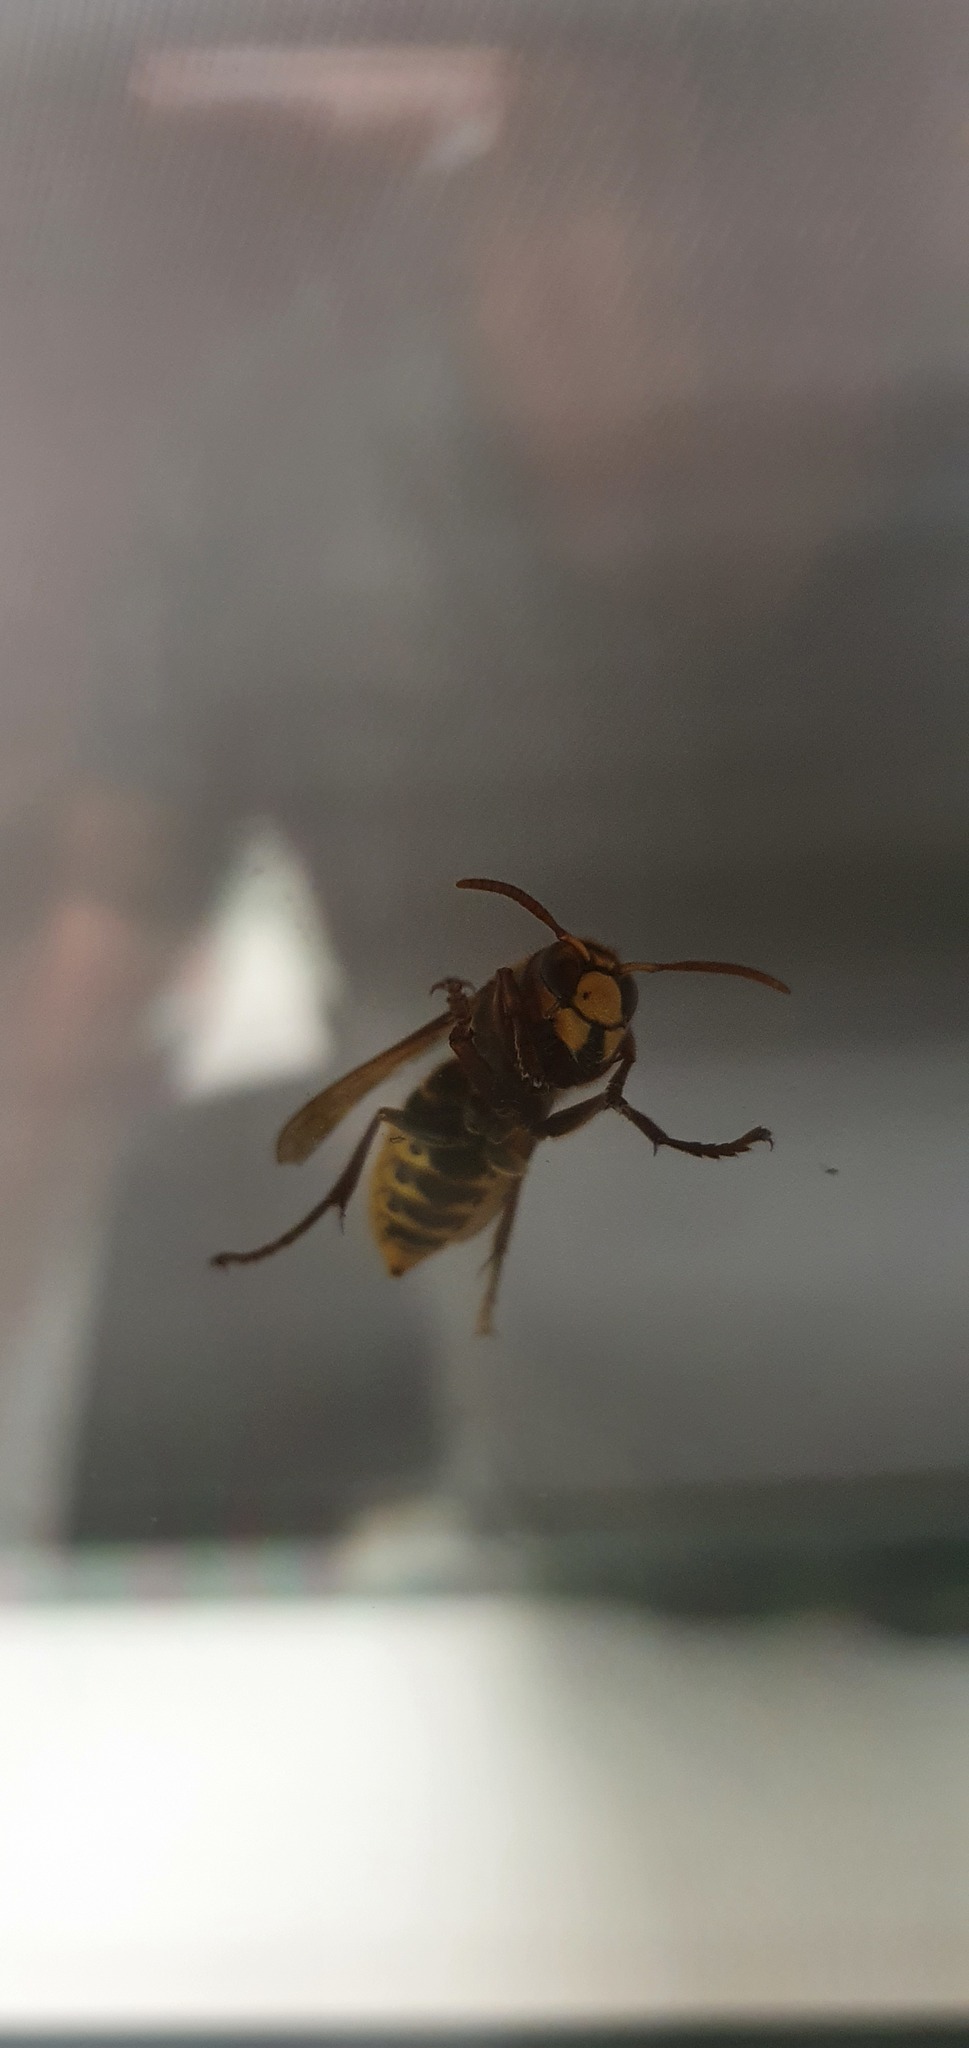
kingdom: Animalia
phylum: Arthropoda
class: Insecta
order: Hymenoptera
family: Vespidae
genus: Vespa
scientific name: Vespa crabro
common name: Hornet
